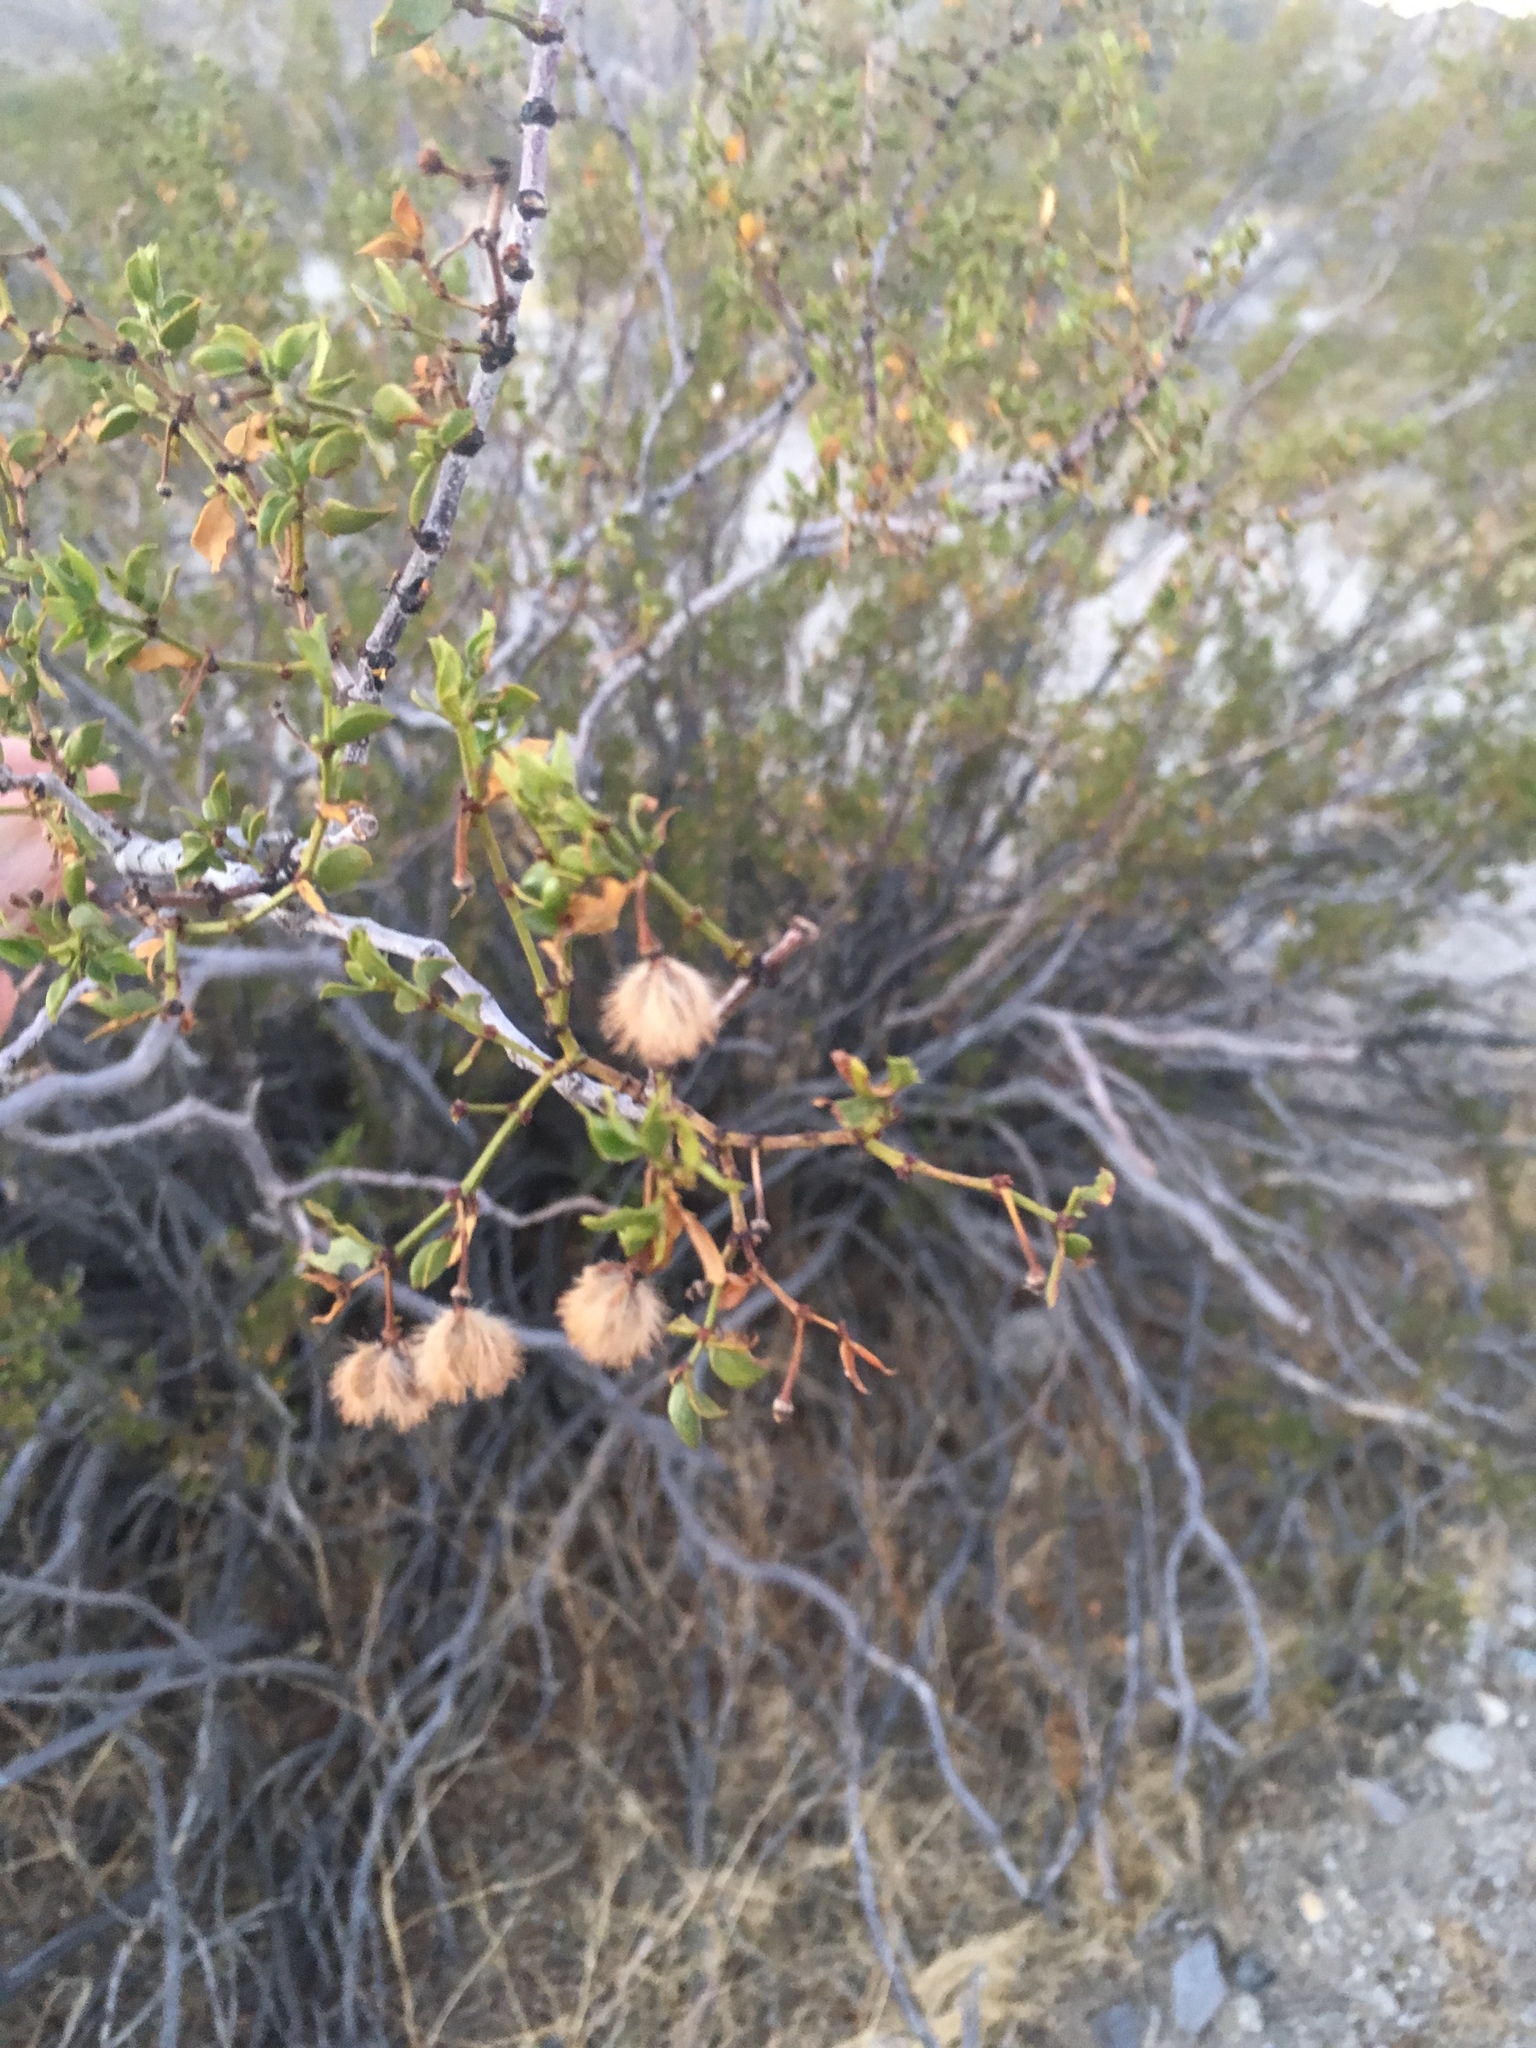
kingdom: Plantae
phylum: Tracheophyta
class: Magnoliopsida
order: Zygophyllales
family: Zygophyllaceae
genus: Larrea
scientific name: Larrea tridentata
